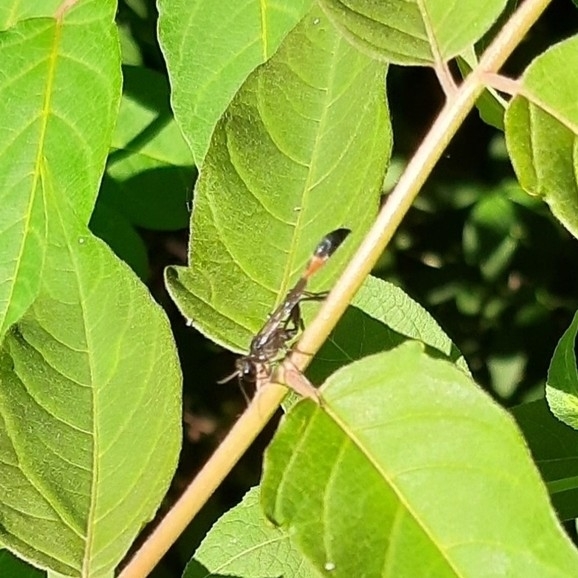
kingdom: Animalia
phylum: Arthropoda
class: Insecta
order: Hymenoptera
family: Sphecidae
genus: Ammophila
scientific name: Ammophila
